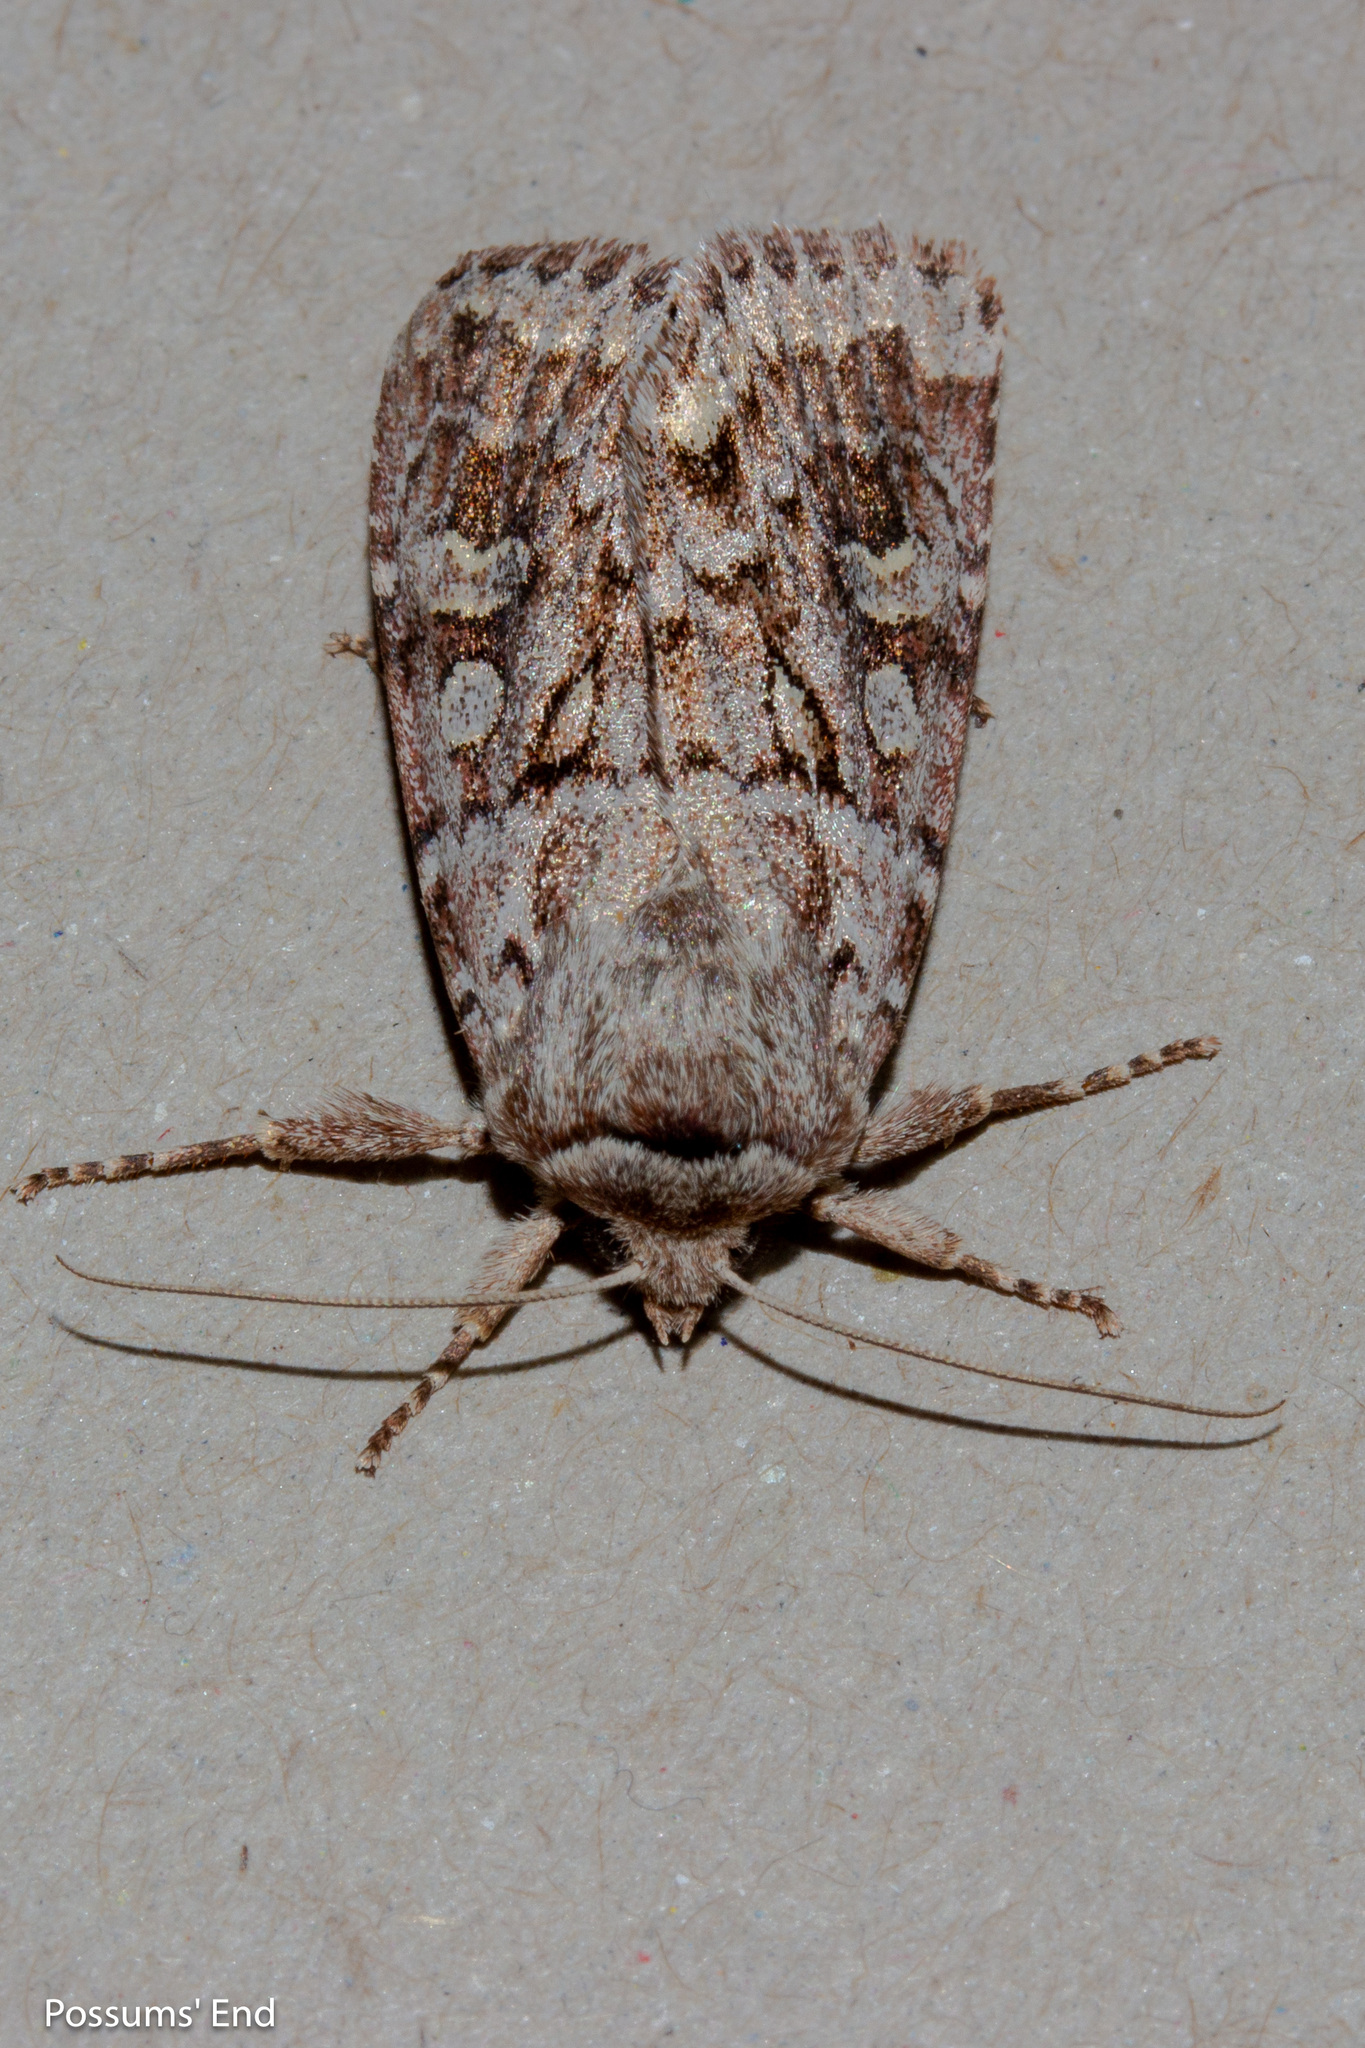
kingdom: Animalia
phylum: Arthropoda
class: Insecta
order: Lepidoptera
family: Noctuidae
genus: Ichneutica
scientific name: Ichneutica marmorata
